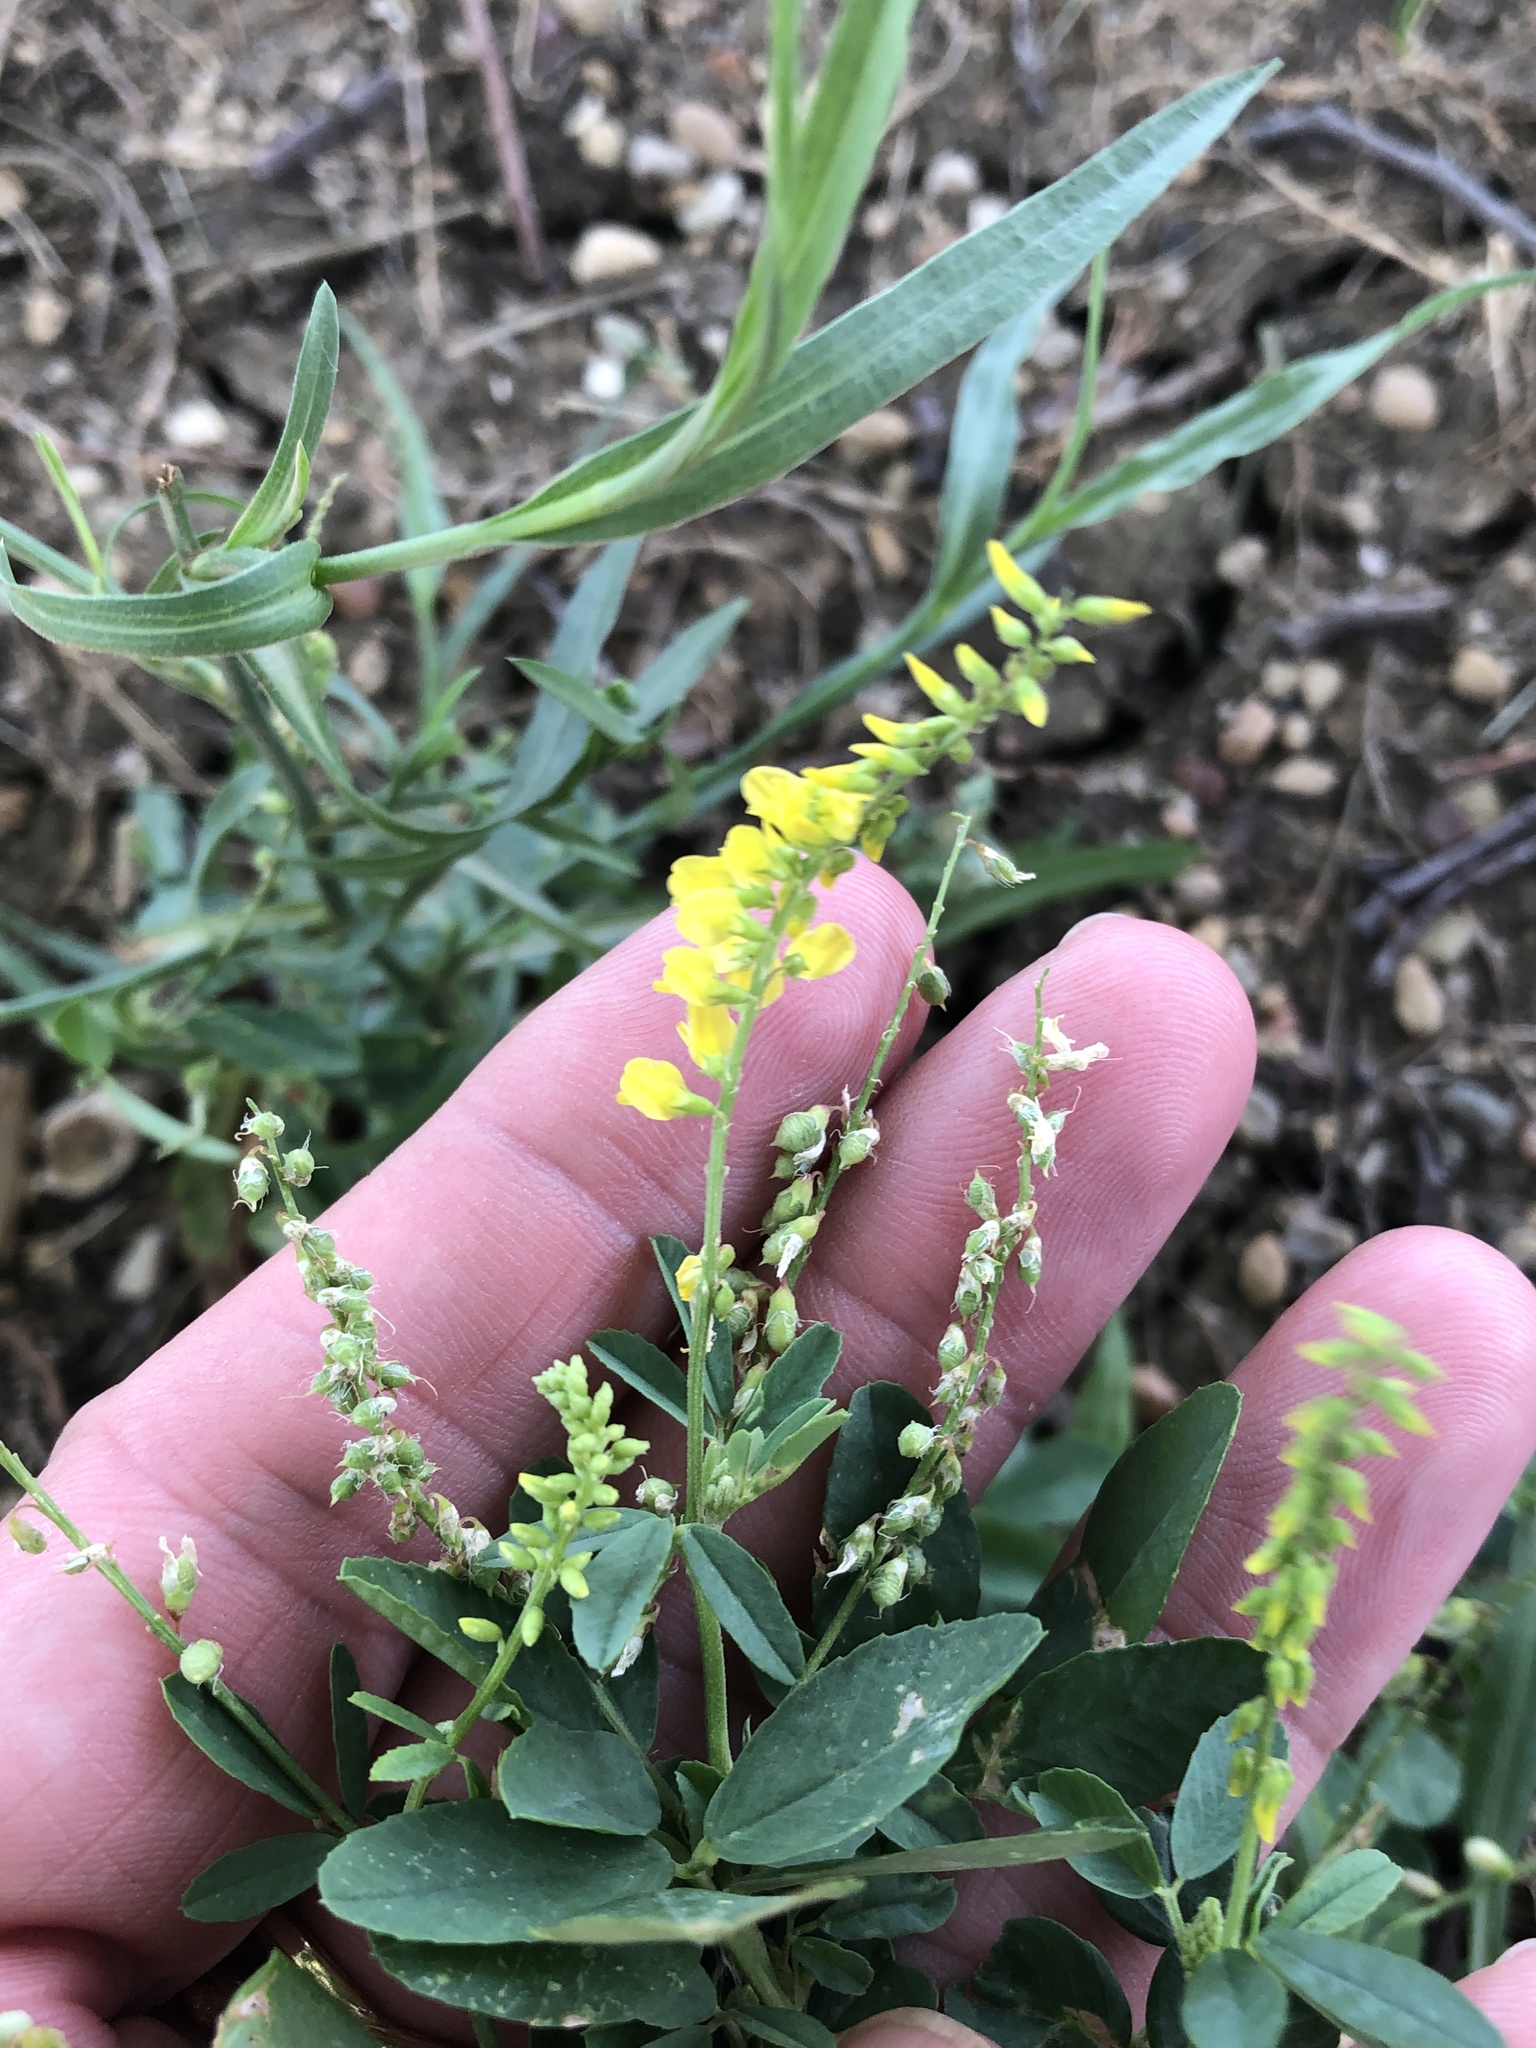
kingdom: Plantae
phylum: Tracheophyta
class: Magnoliopsida
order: Fabales
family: Fabaceae
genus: Melilotus
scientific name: Melilotus officinalis
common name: Sweetclover
